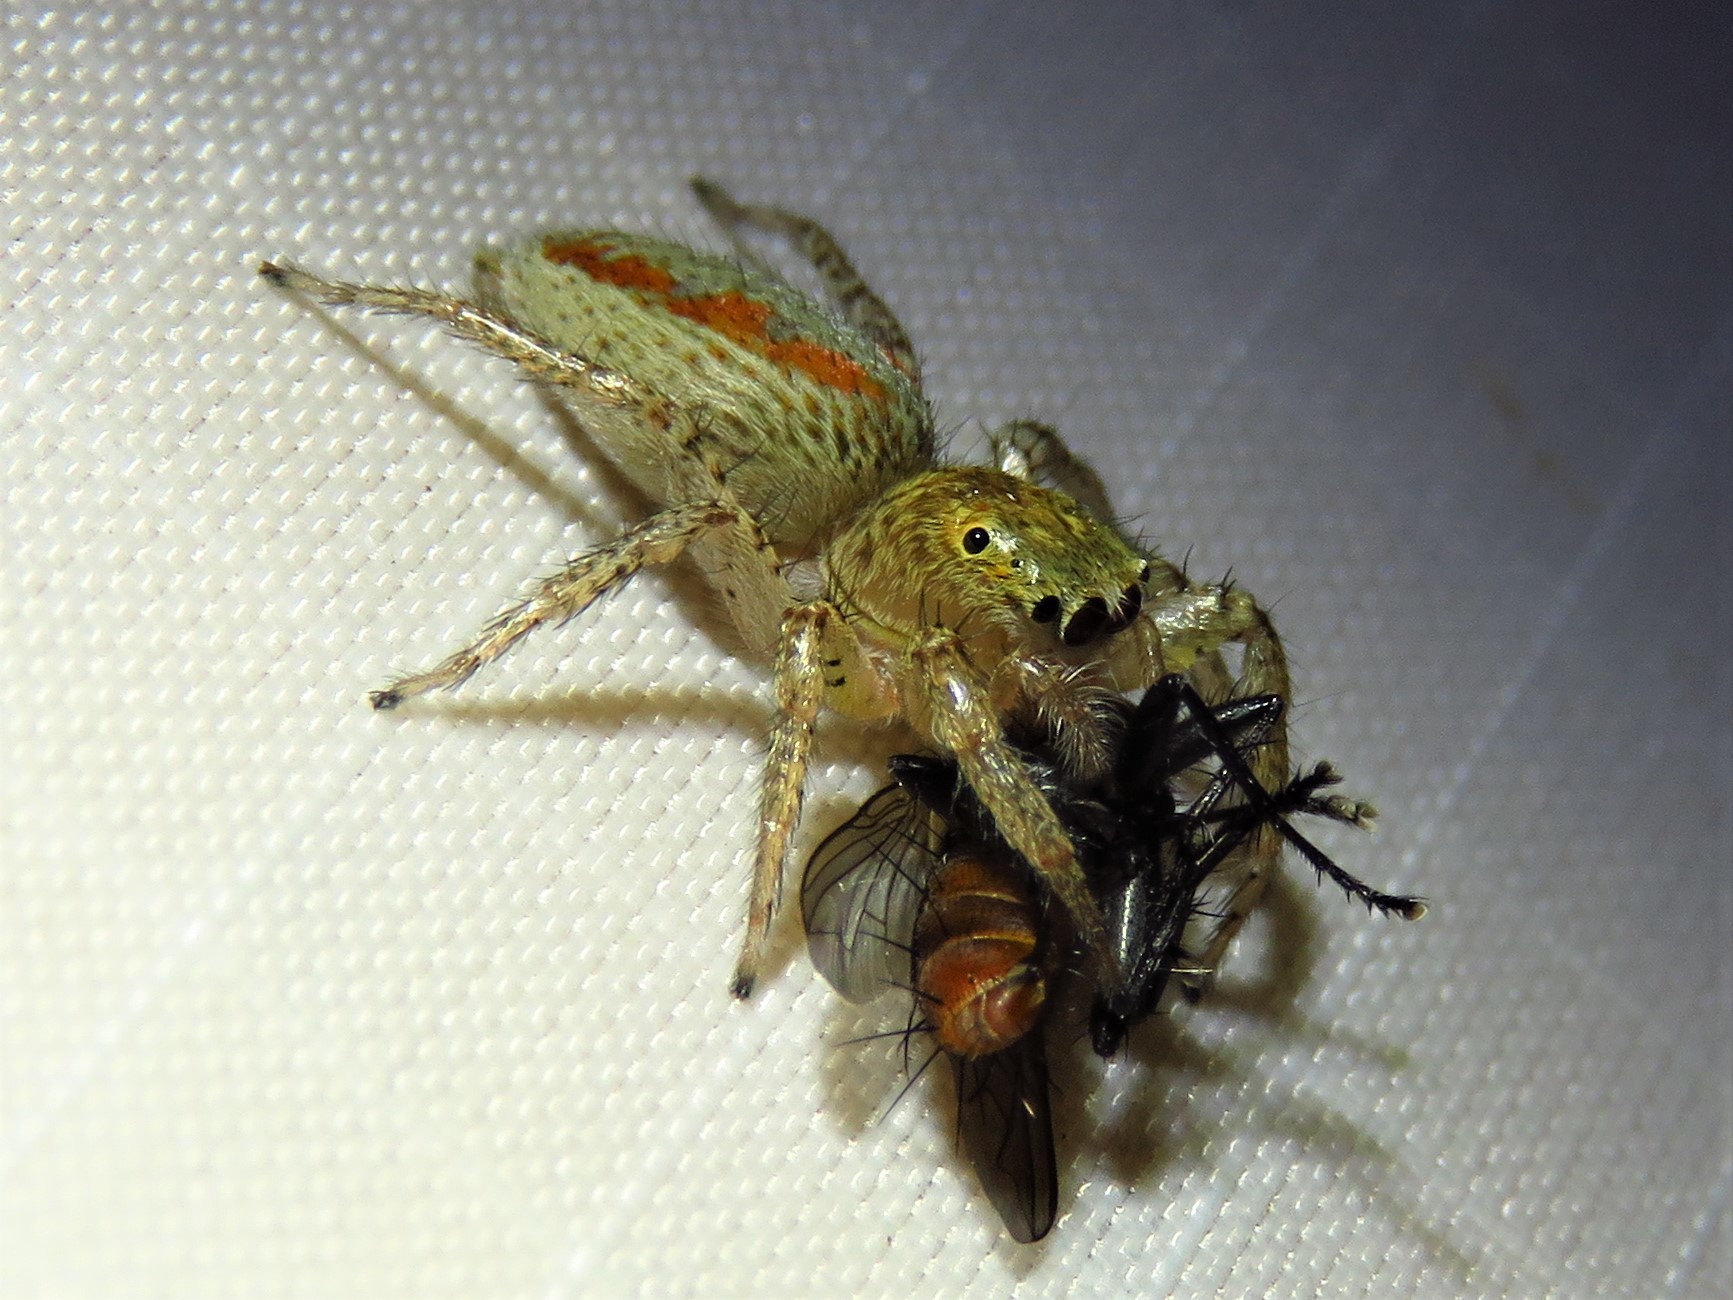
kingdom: Animalia
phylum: Arthropoda
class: Arachnida
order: Araneae
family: Salticidae
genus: Maevia
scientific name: Maevia inclemens
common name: Dimorphic jumper
